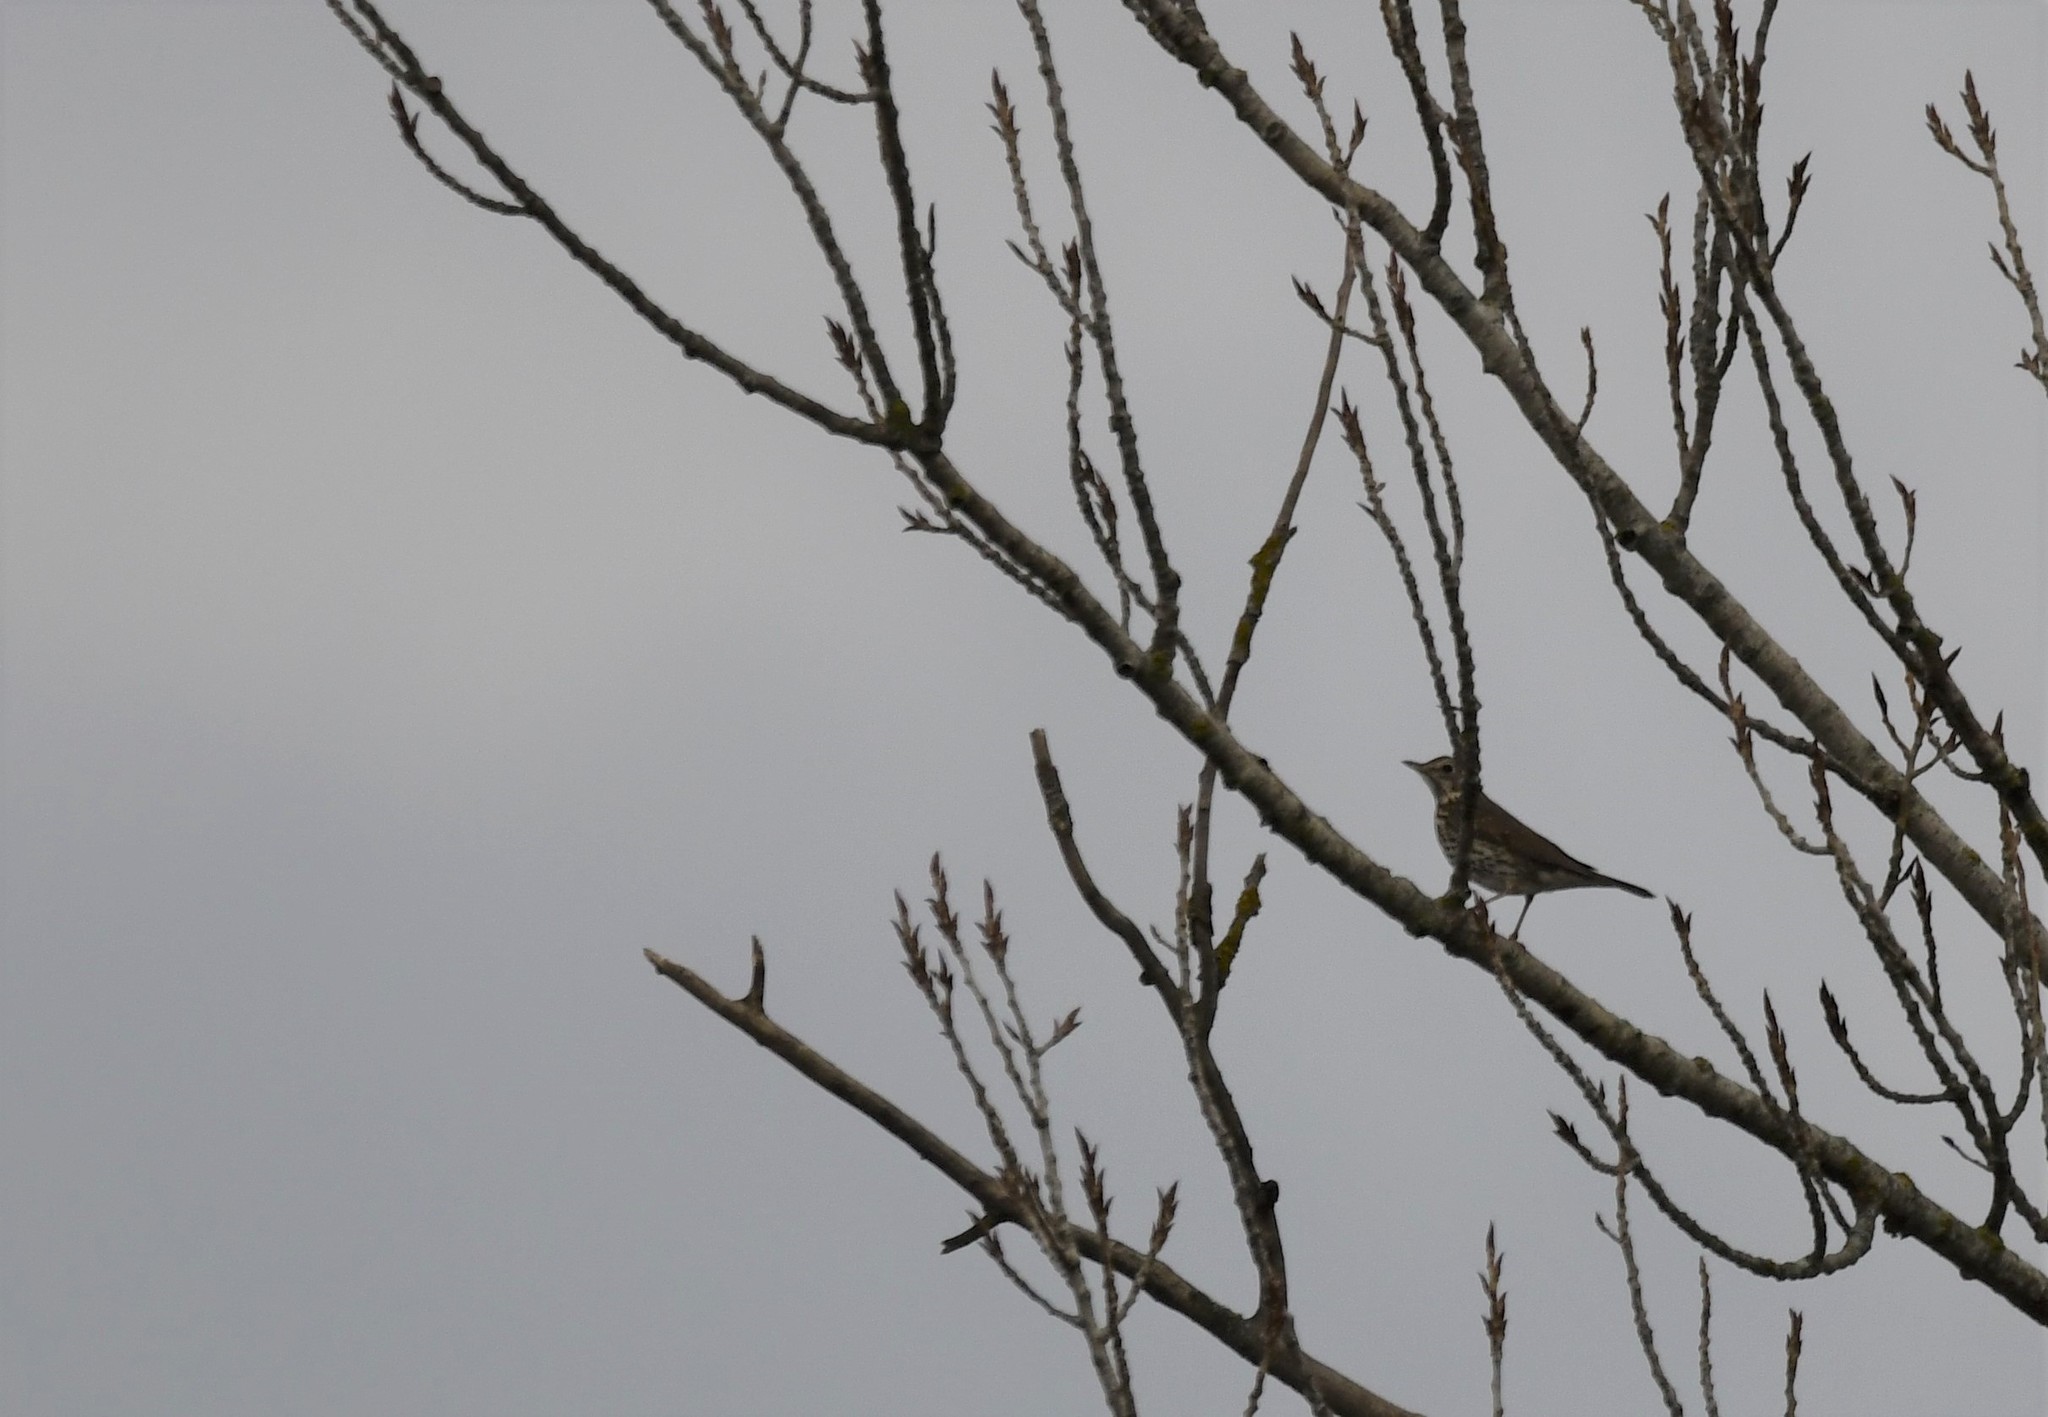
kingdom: Animalia
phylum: Chordata
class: Aves
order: Passeriformes
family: Turdidae
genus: Turdus
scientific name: Turdus philomelos
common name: Song thrush
